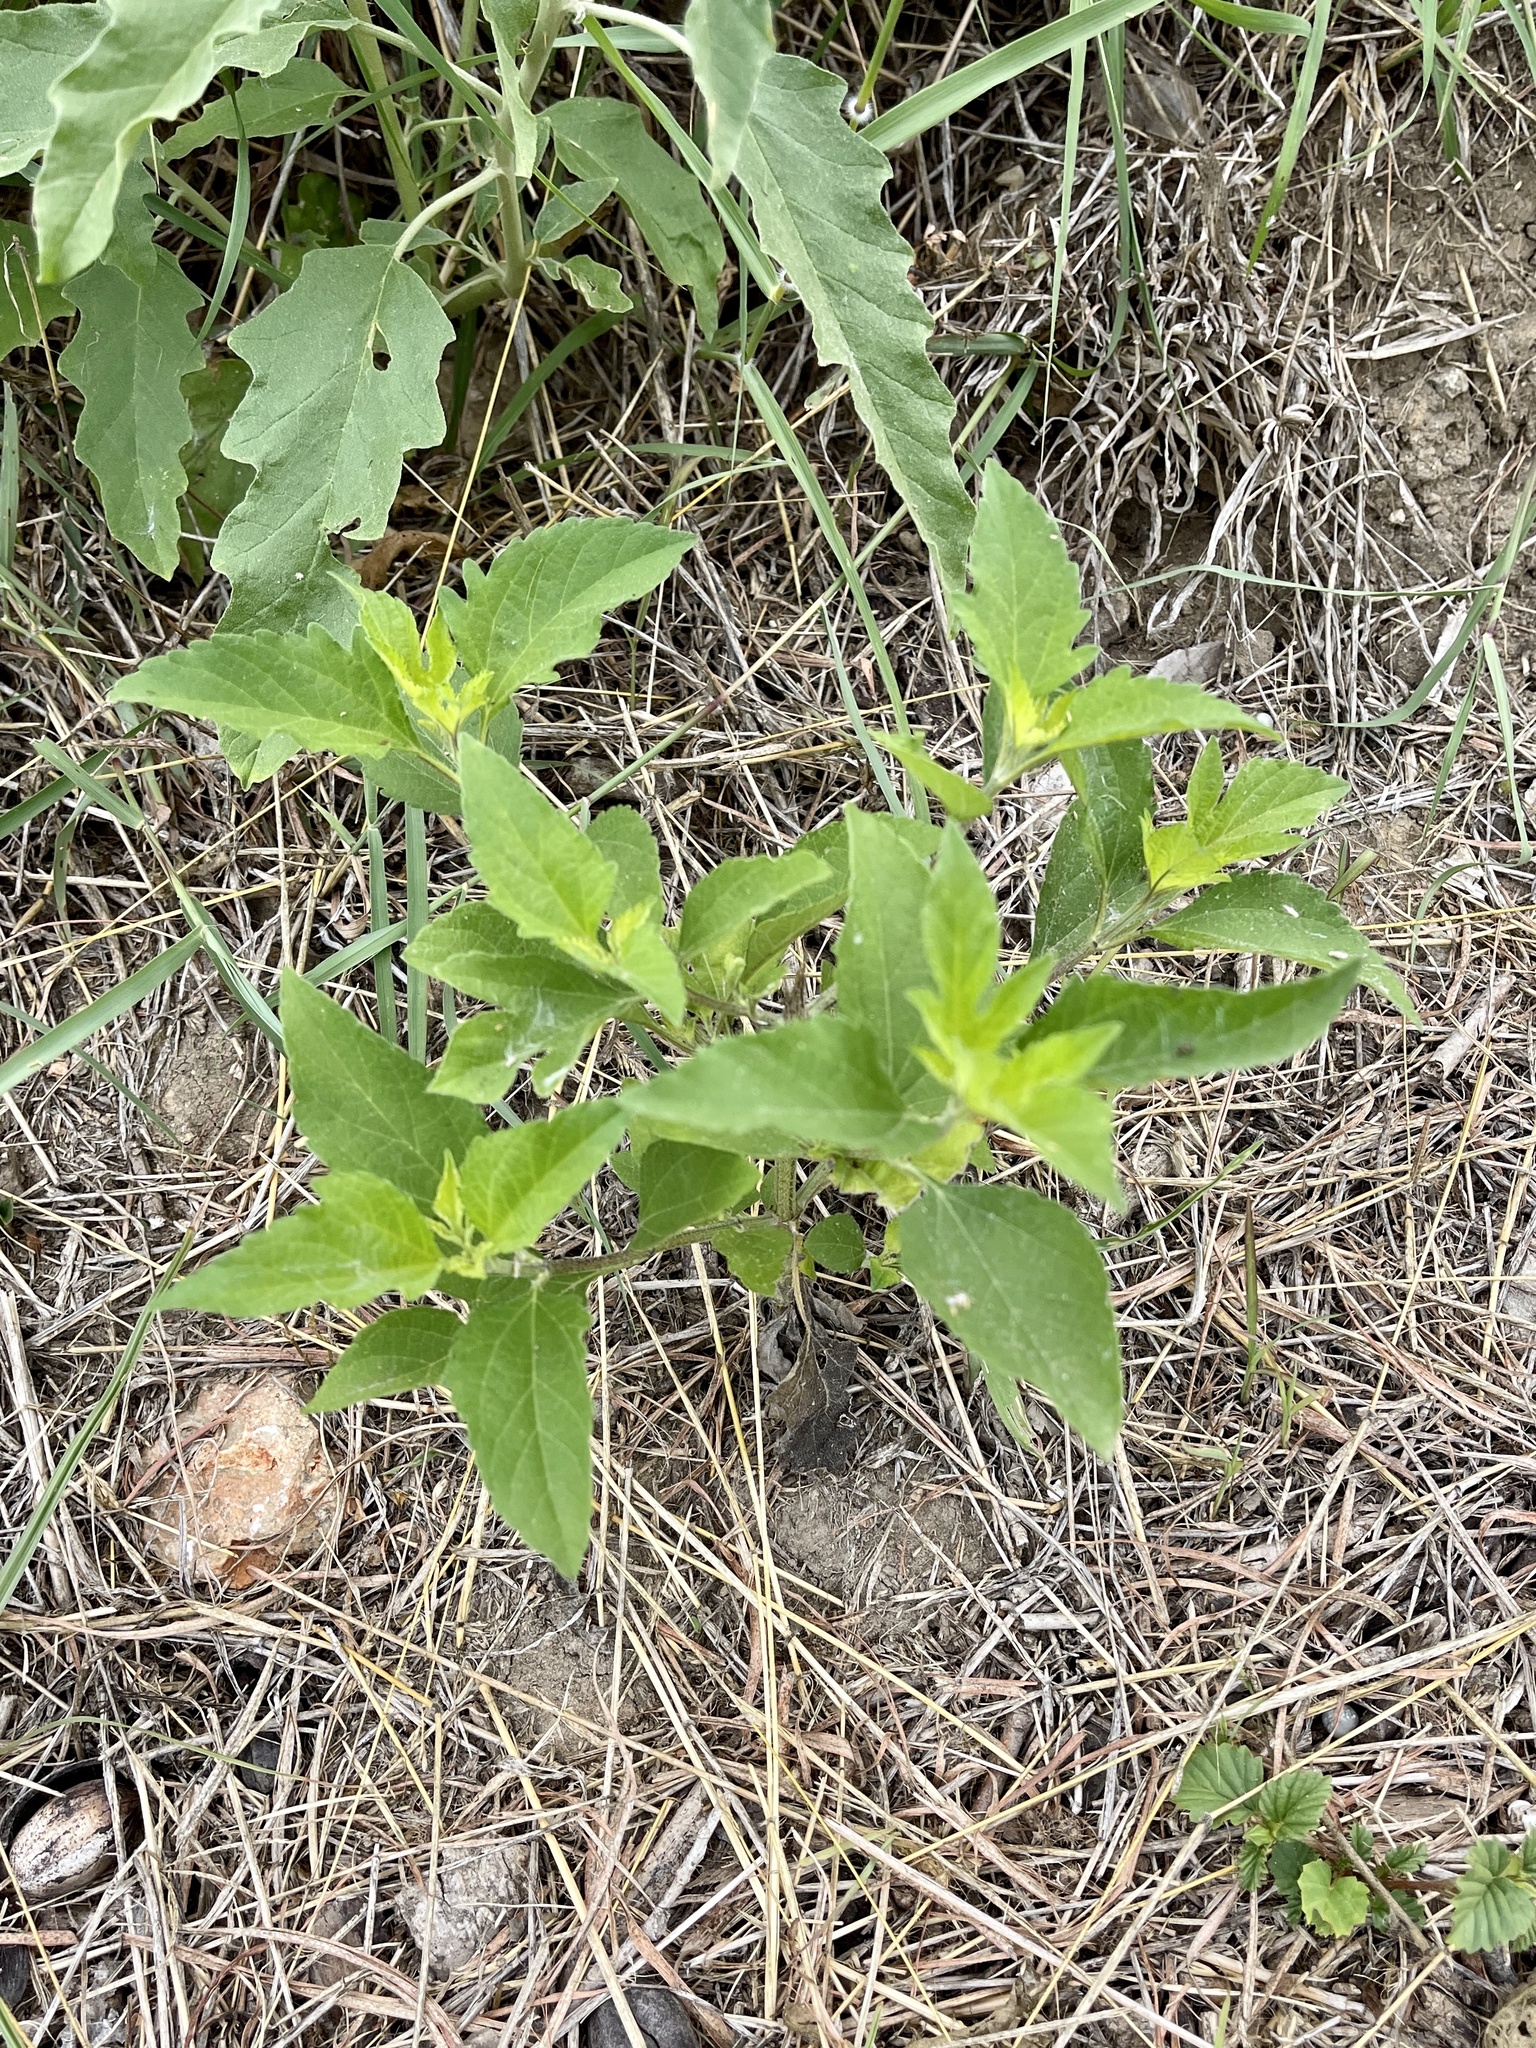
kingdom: Plantae
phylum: Tracheophyta
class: Magnoliopsida
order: Asterales
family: Asteraceae
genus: Ambrosia
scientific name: Ambrosia trifida
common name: Giant ragweed
